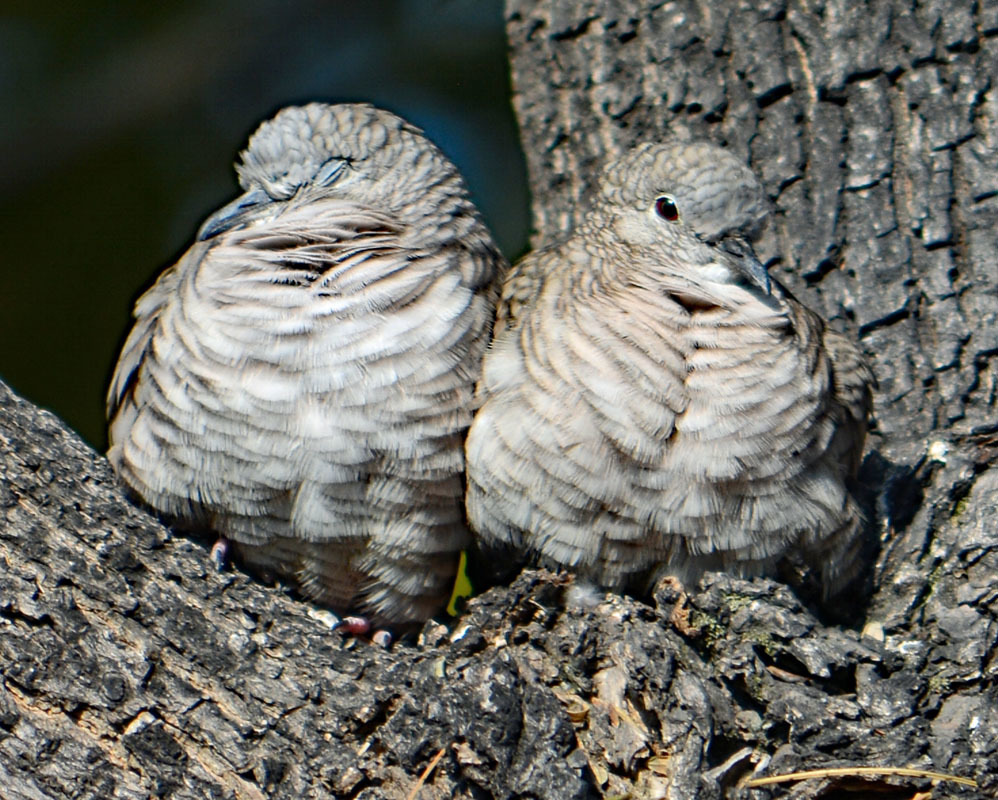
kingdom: Animalia
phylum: Chordata
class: Aves
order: Columbiformes
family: Columbidae
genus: Columbina
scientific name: Columbina inca
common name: Inca dove
